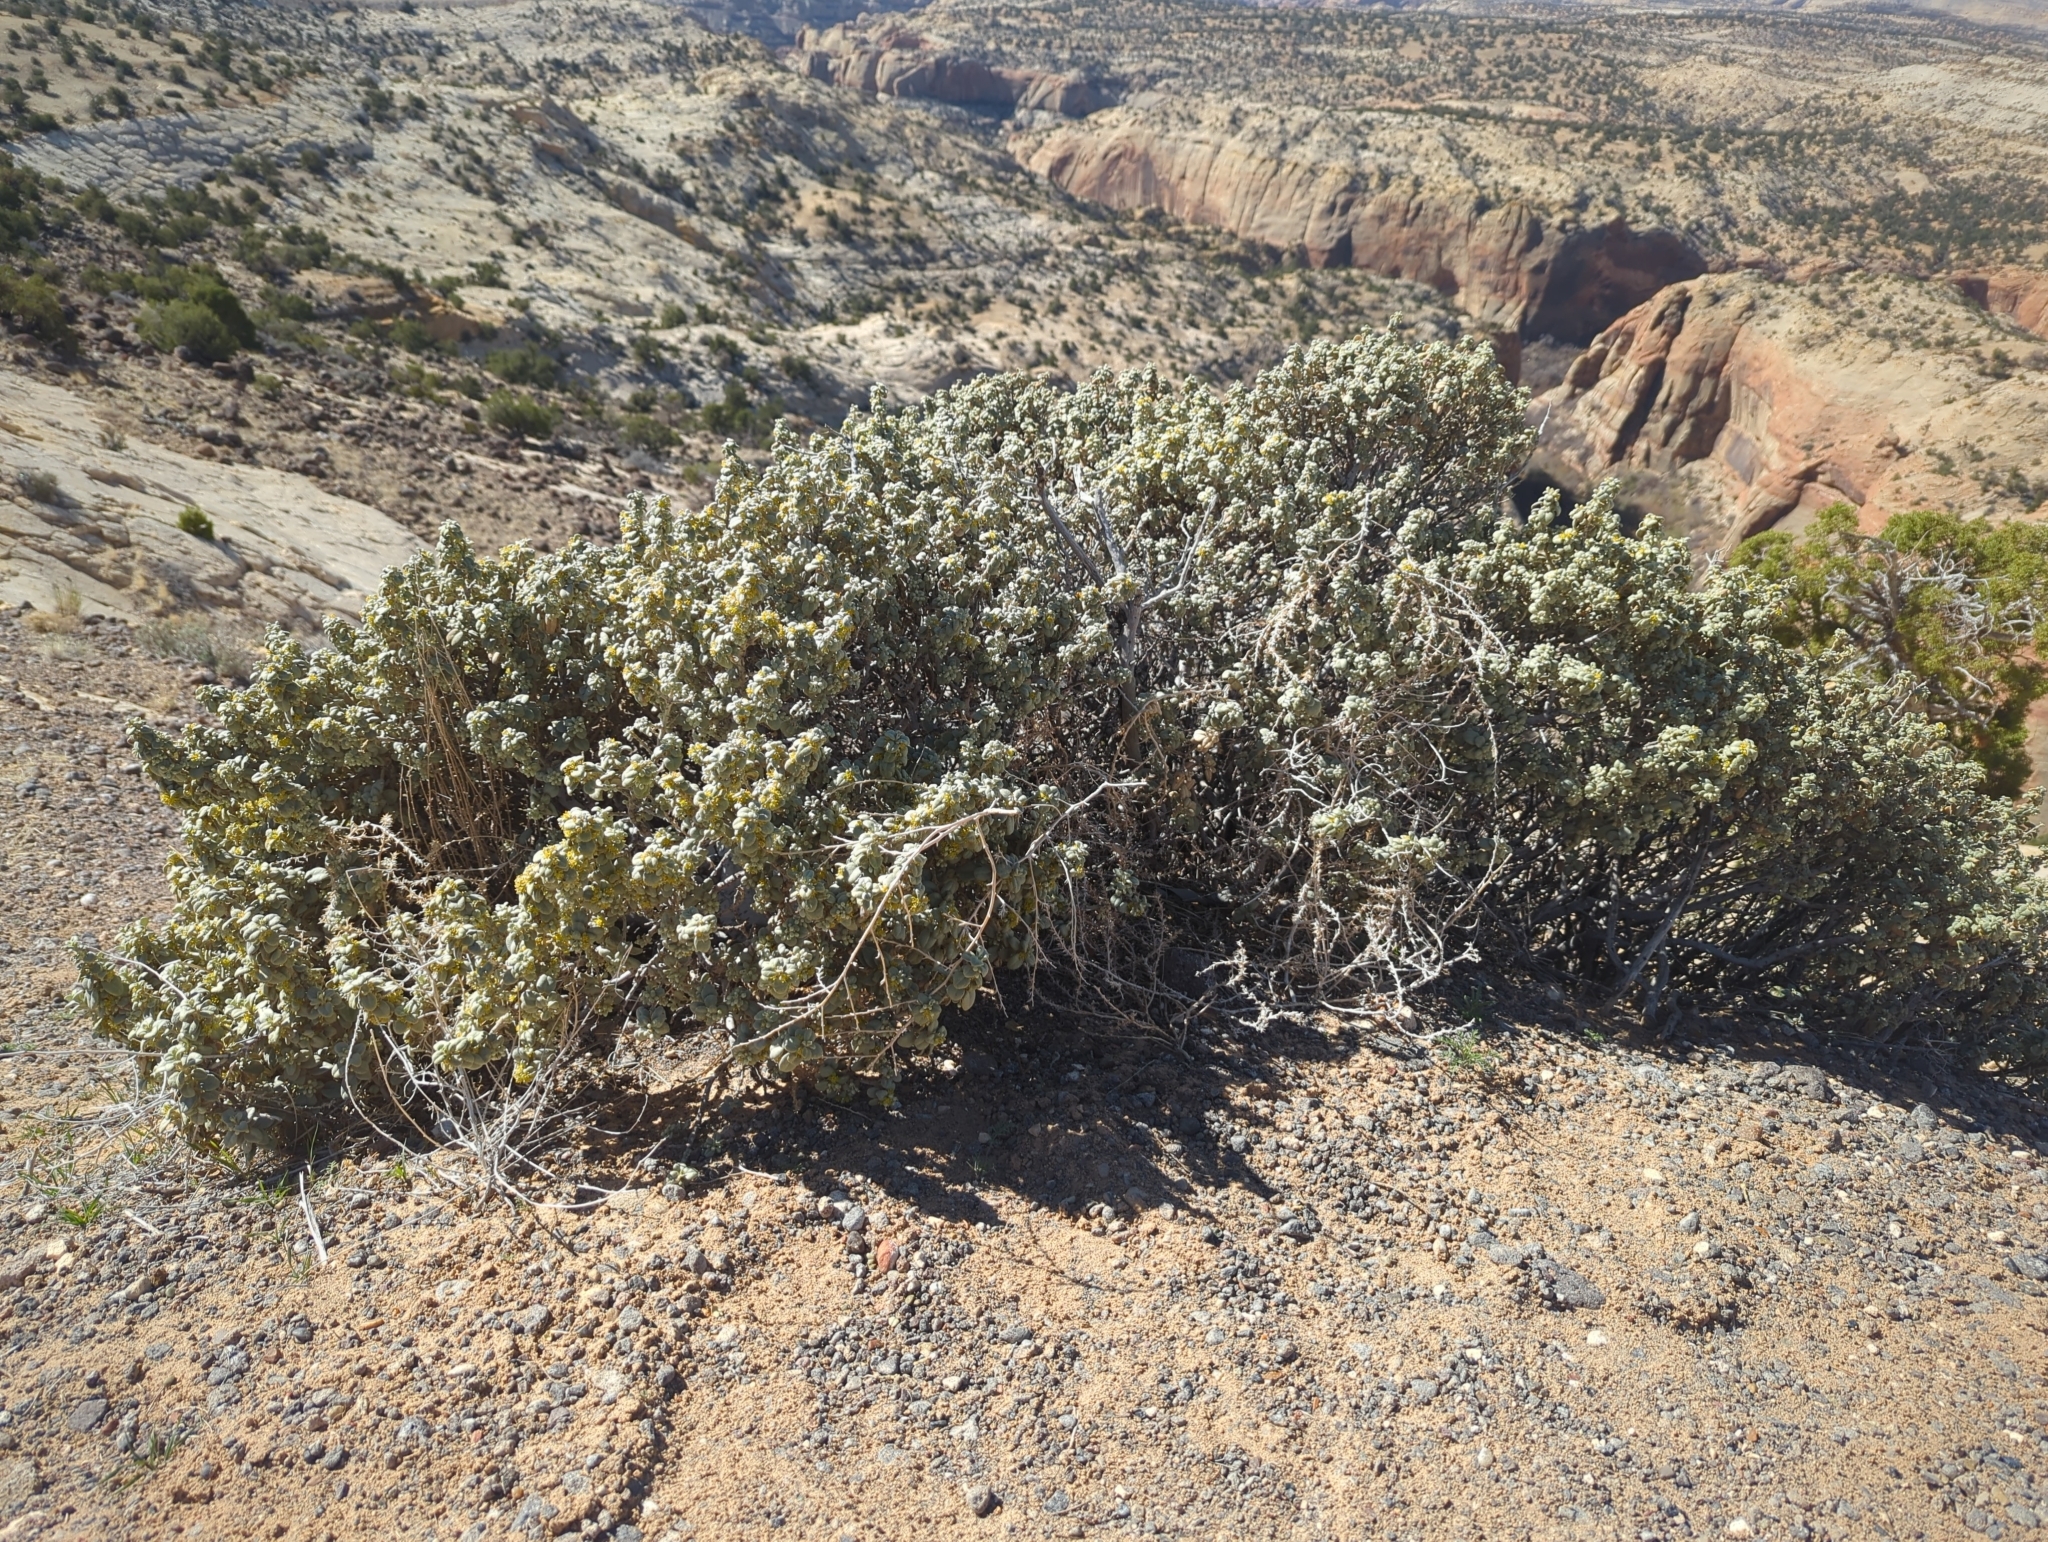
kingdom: Plantae
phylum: Tracheophyta
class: Magnoliopsida
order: Rosales
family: Elaeagnaceae
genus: Shepherdia
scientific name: Shepherdia rotundifolia
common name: Silverscale
